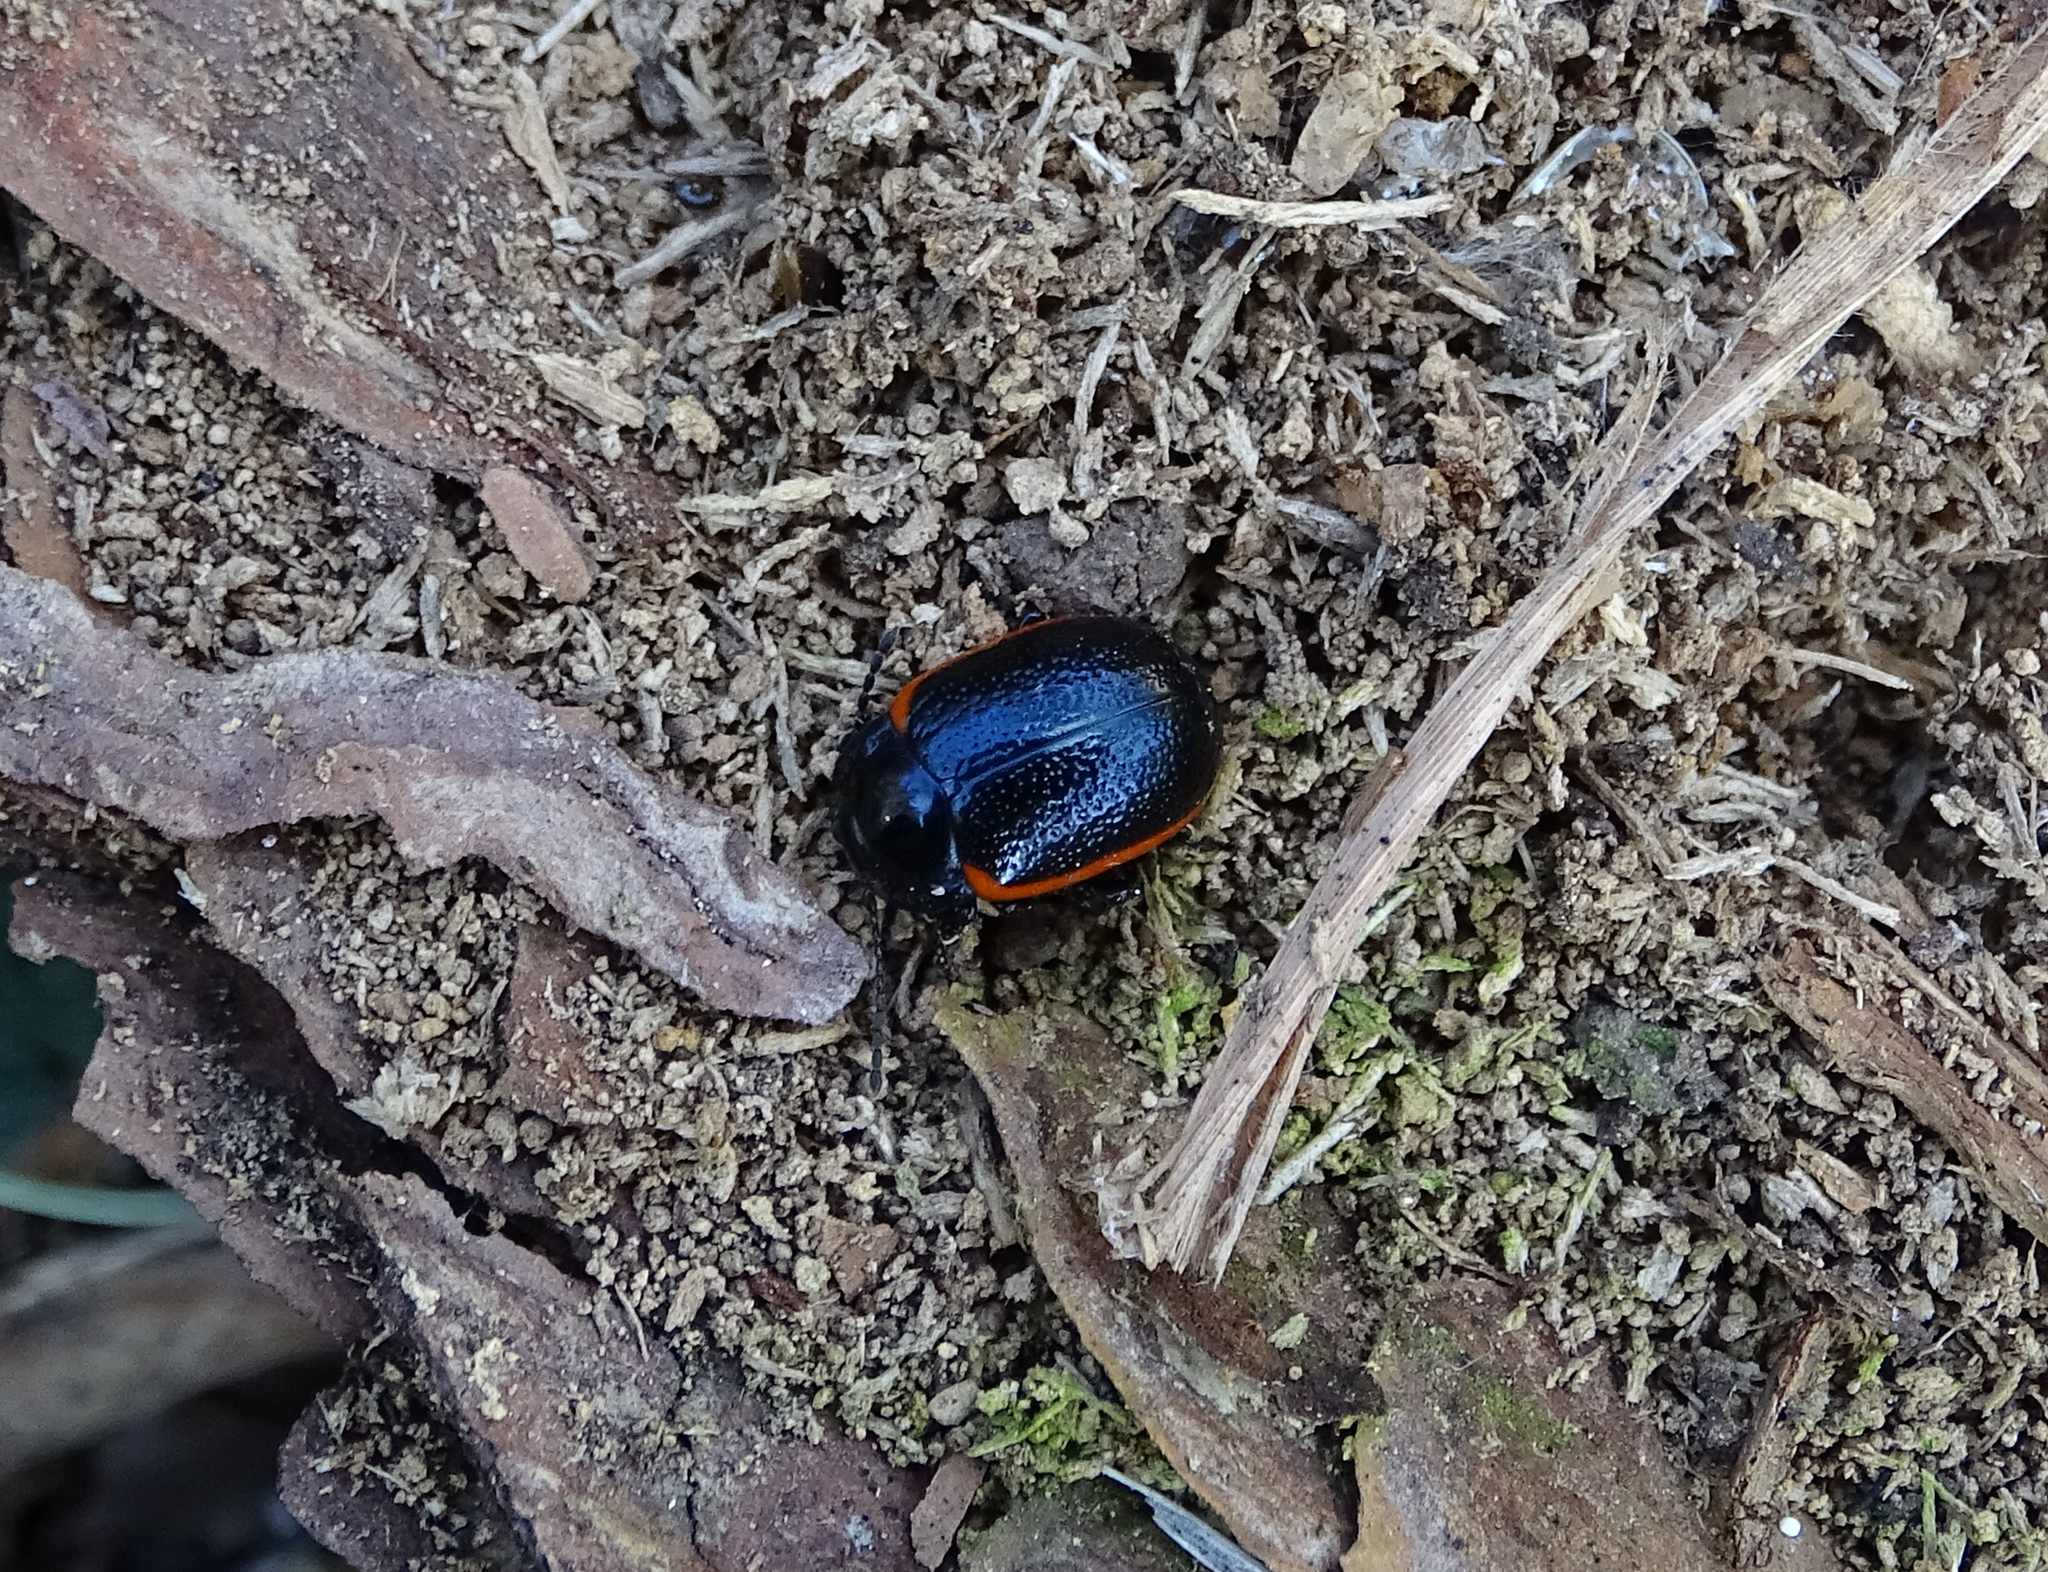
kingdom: Animalia
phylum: Arthropoda
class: Insecta
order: Coleoptera
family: Chrysomelidae
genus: Chrysolina
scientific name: Chrysolina sanguinolenta
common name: Toadflax leaf beetle
